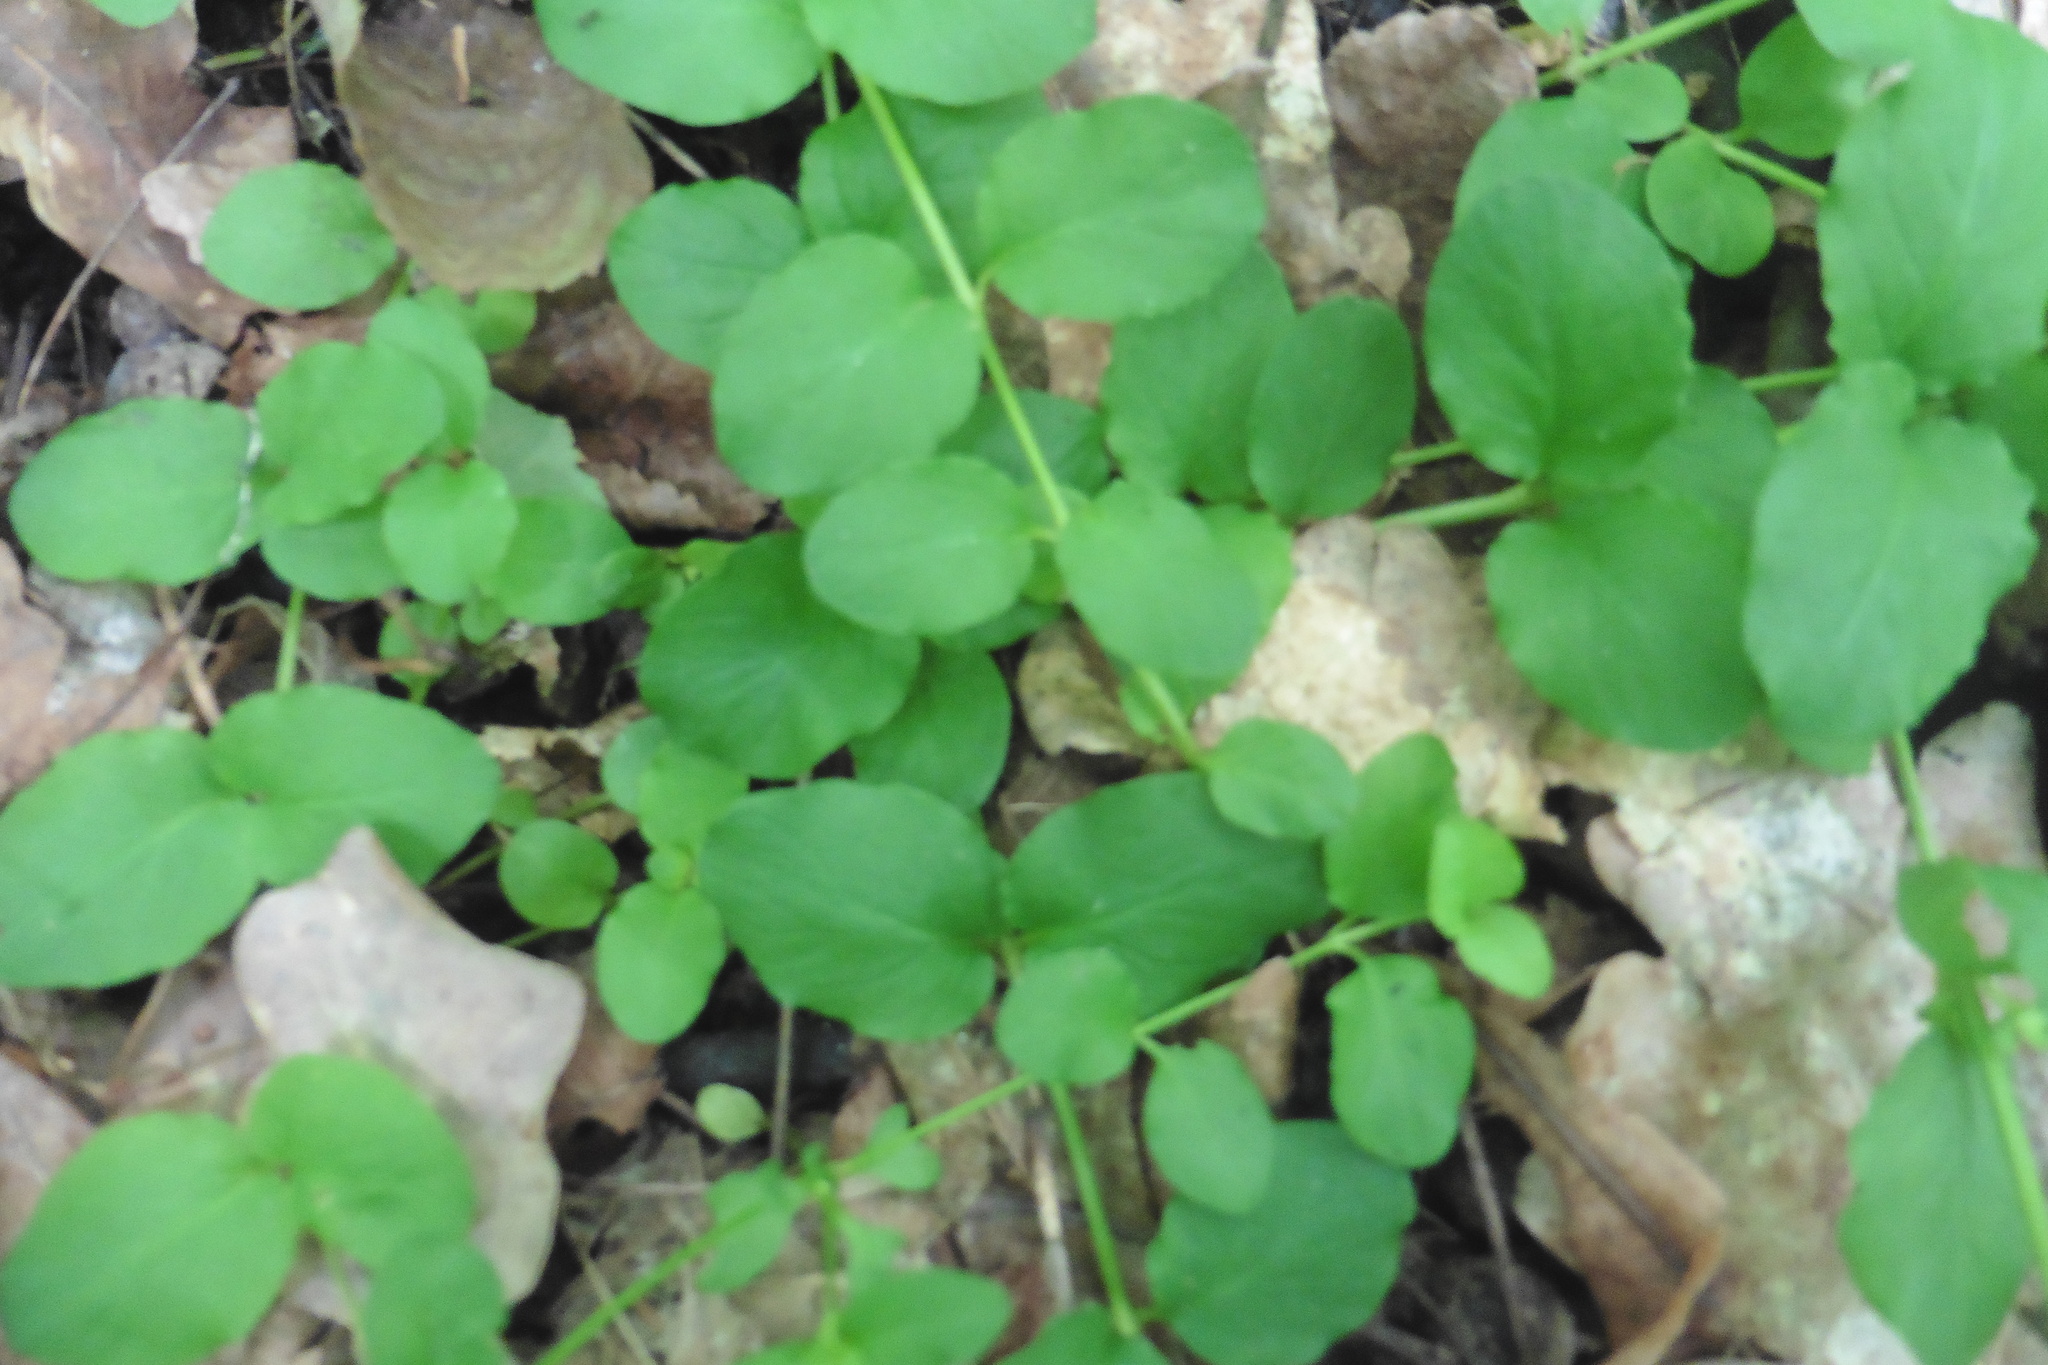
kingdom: Plantae
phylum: Tracheophyta
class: Magnoliopsida
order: Ericales
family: Primulaceae
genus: Lysimachia
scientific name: Lysimachia nummularia
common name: Moneywort
